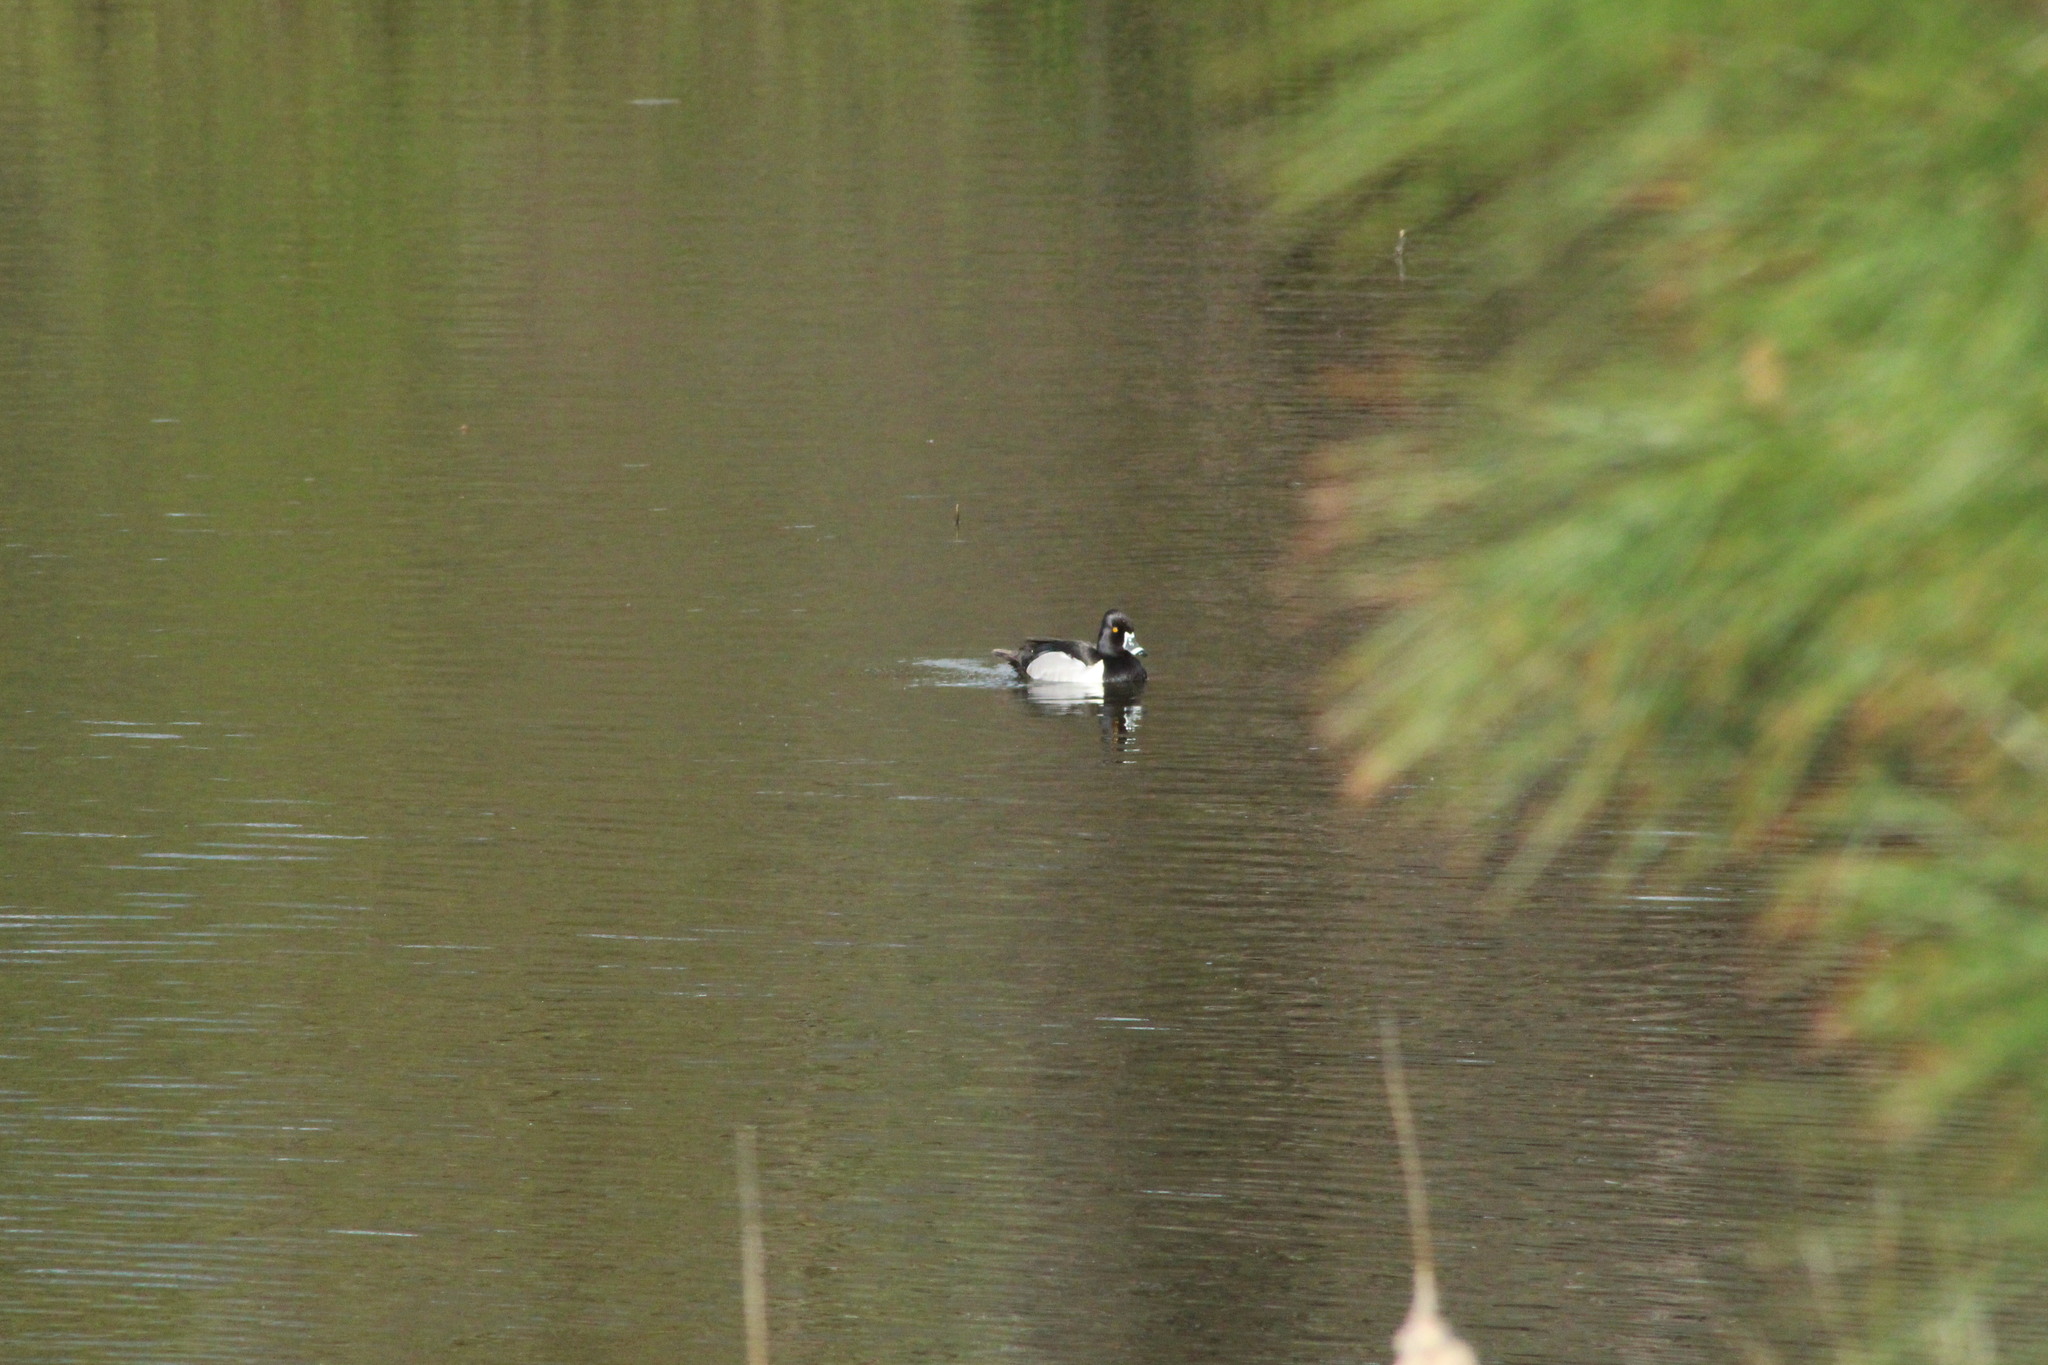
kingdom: Animalia
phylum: Chordata
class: Aves
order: Anseriformes
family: Anatidae
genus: Aythya
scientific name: Aythya collaris
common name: Ring-necked duck
